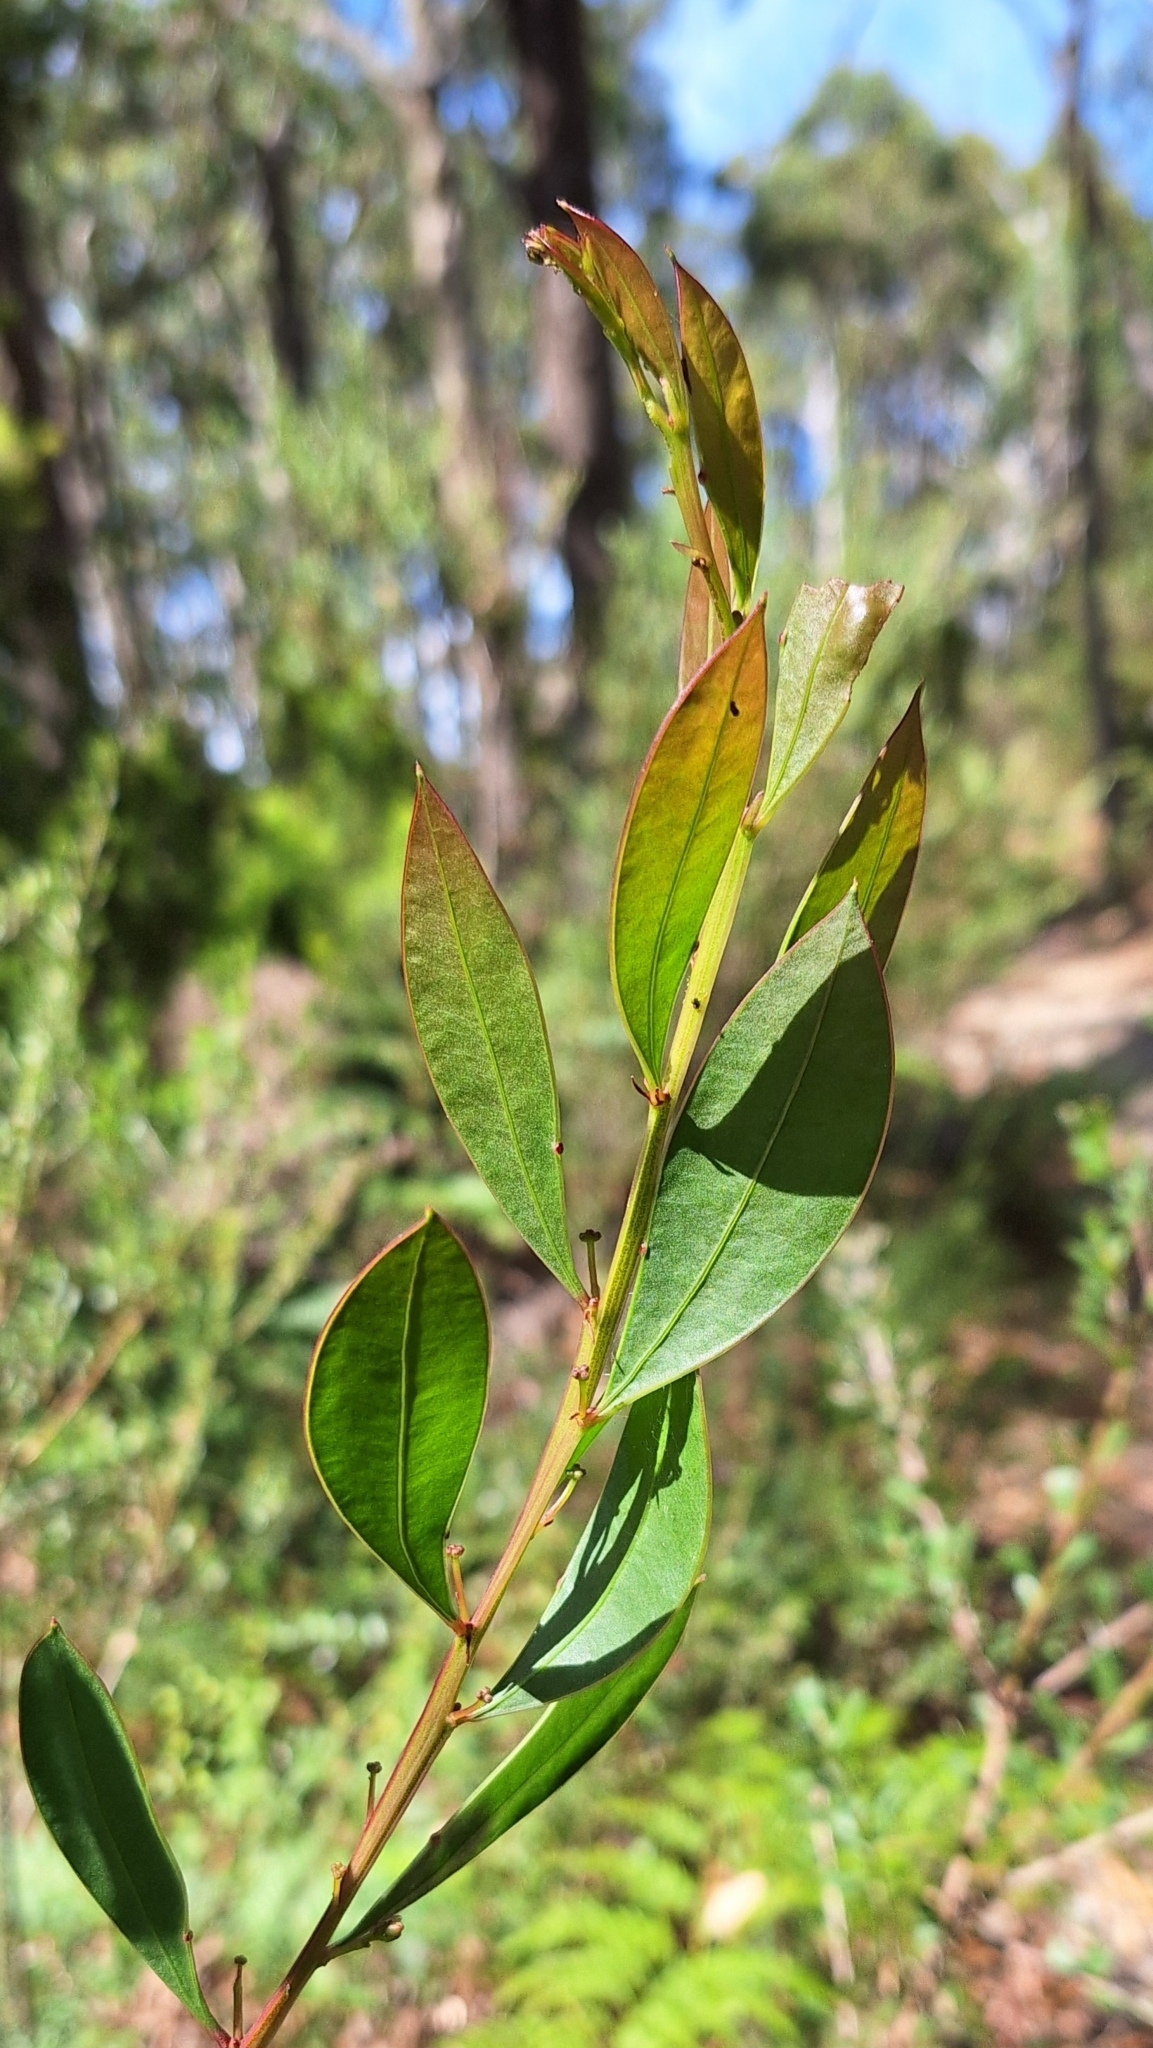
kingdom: Plantae
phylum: Tracheophyta
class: Magnoliopsida
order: Fabales
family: Fabaceae
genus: Acacia
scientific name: Acacia myrtifolia
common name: Myrtle wattle
